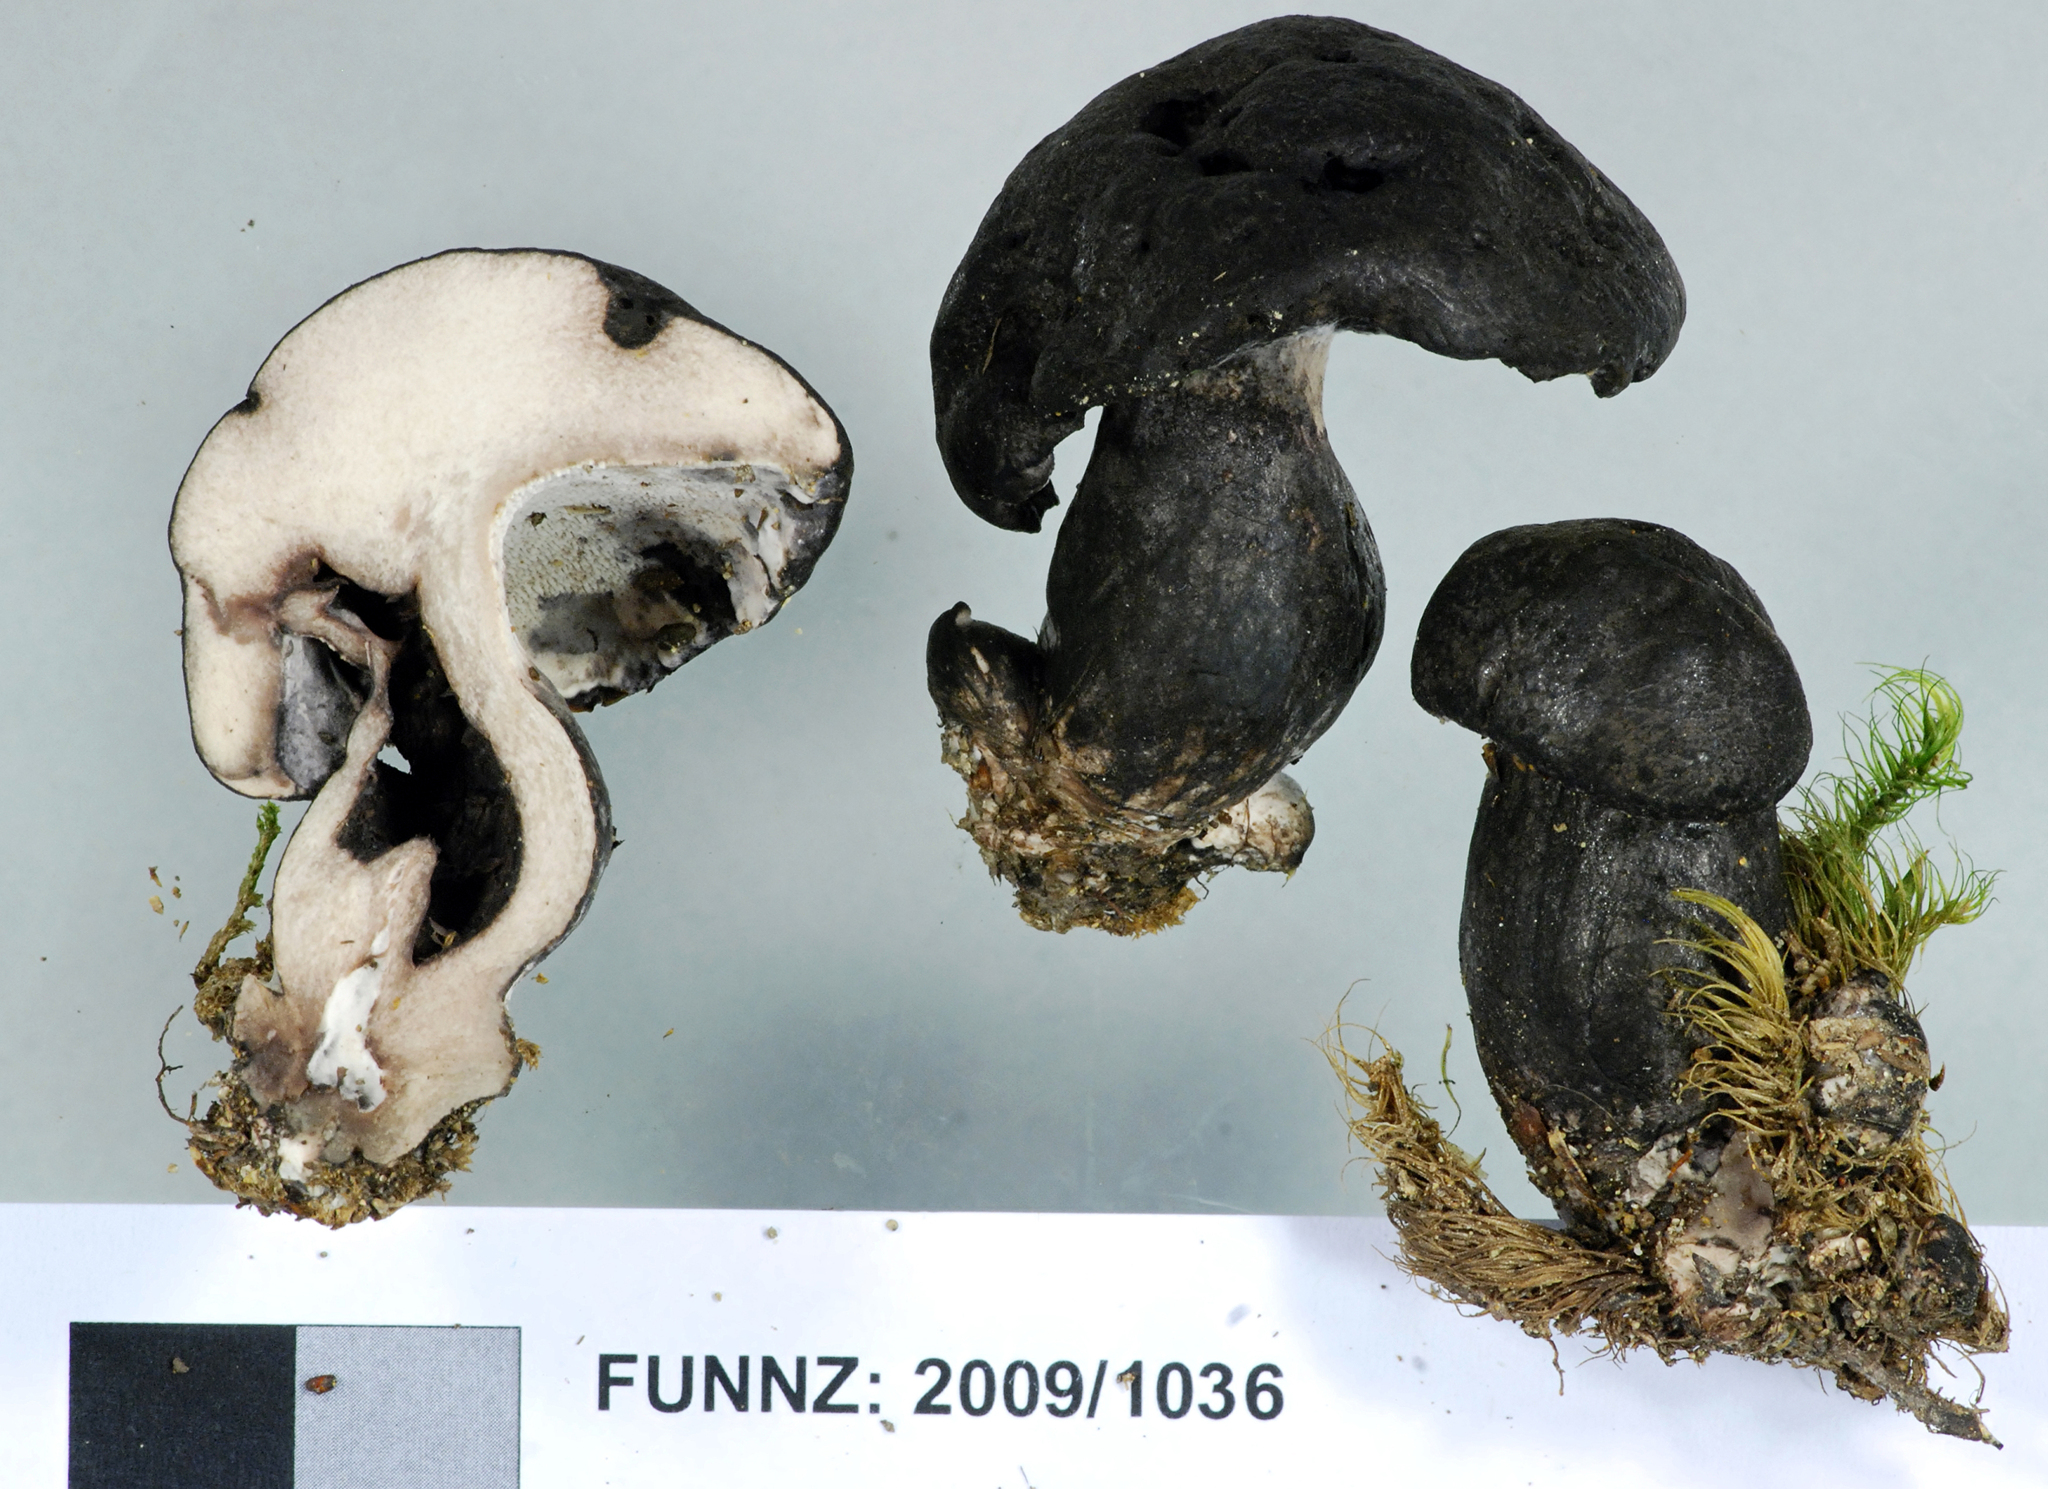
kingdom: Fungi
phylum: Basidiomycota
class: Agaricomycetes
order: Thelephorales
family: Bankeraceae
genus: Boletopsis
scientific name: Boletopsis nothofagi
